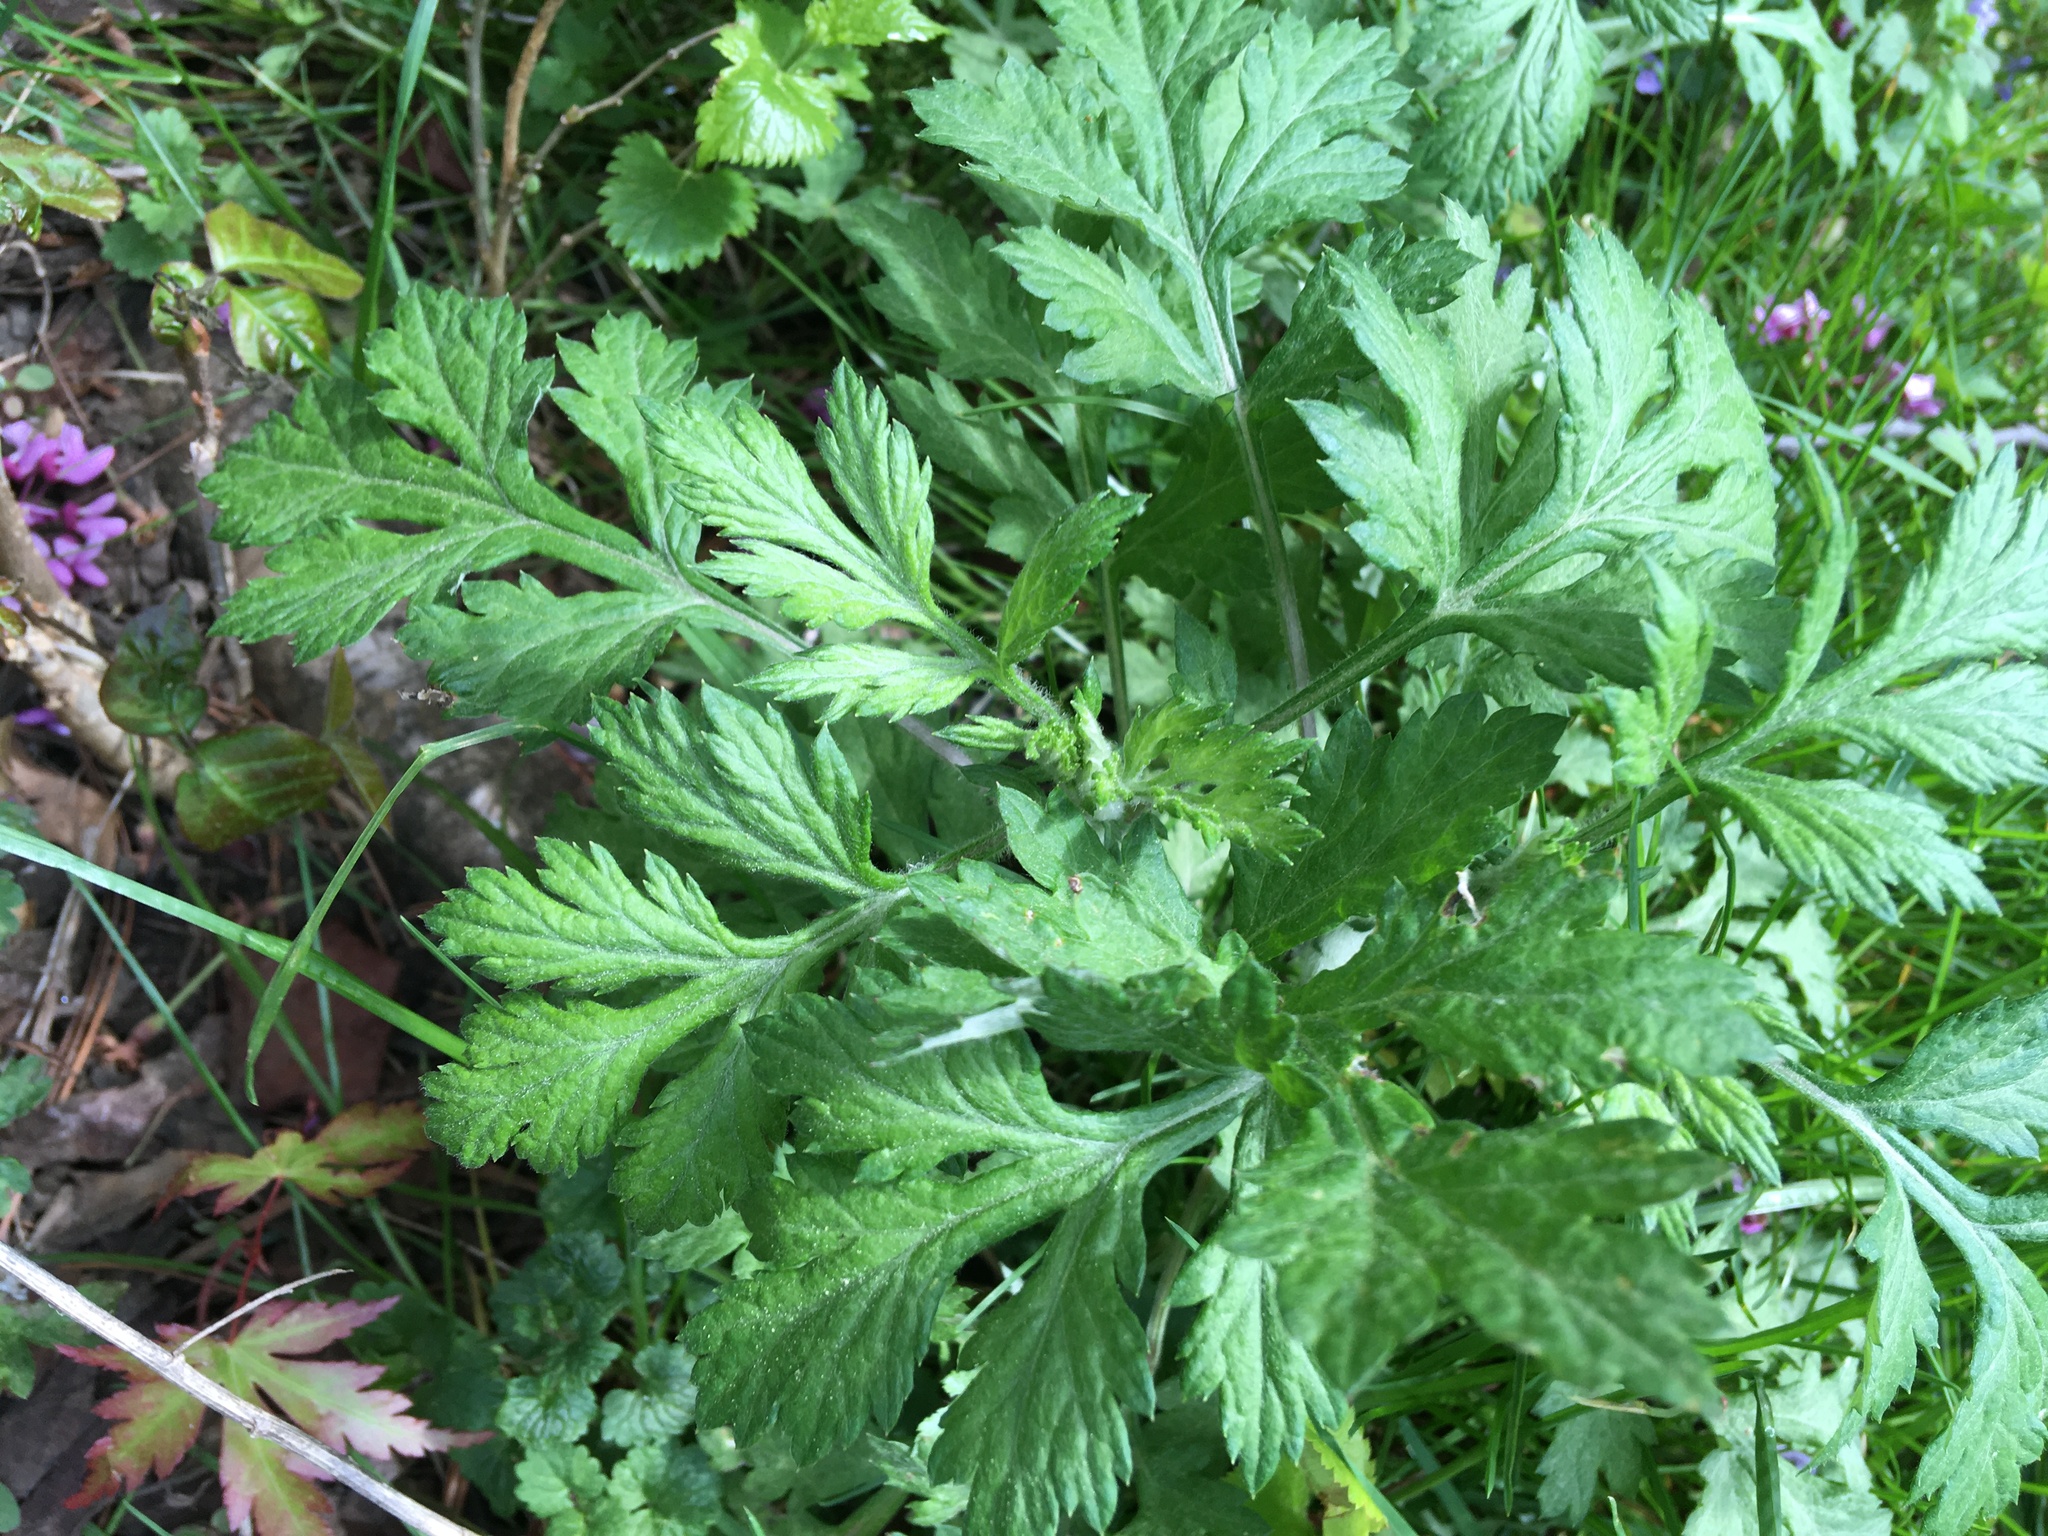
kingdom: Plantae
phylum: Tracheophyta
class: Magnoliopsida
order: Asterales
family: Asteraceae
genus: Artemisia
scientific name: Artemisia vulgaris
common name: Mugwort
